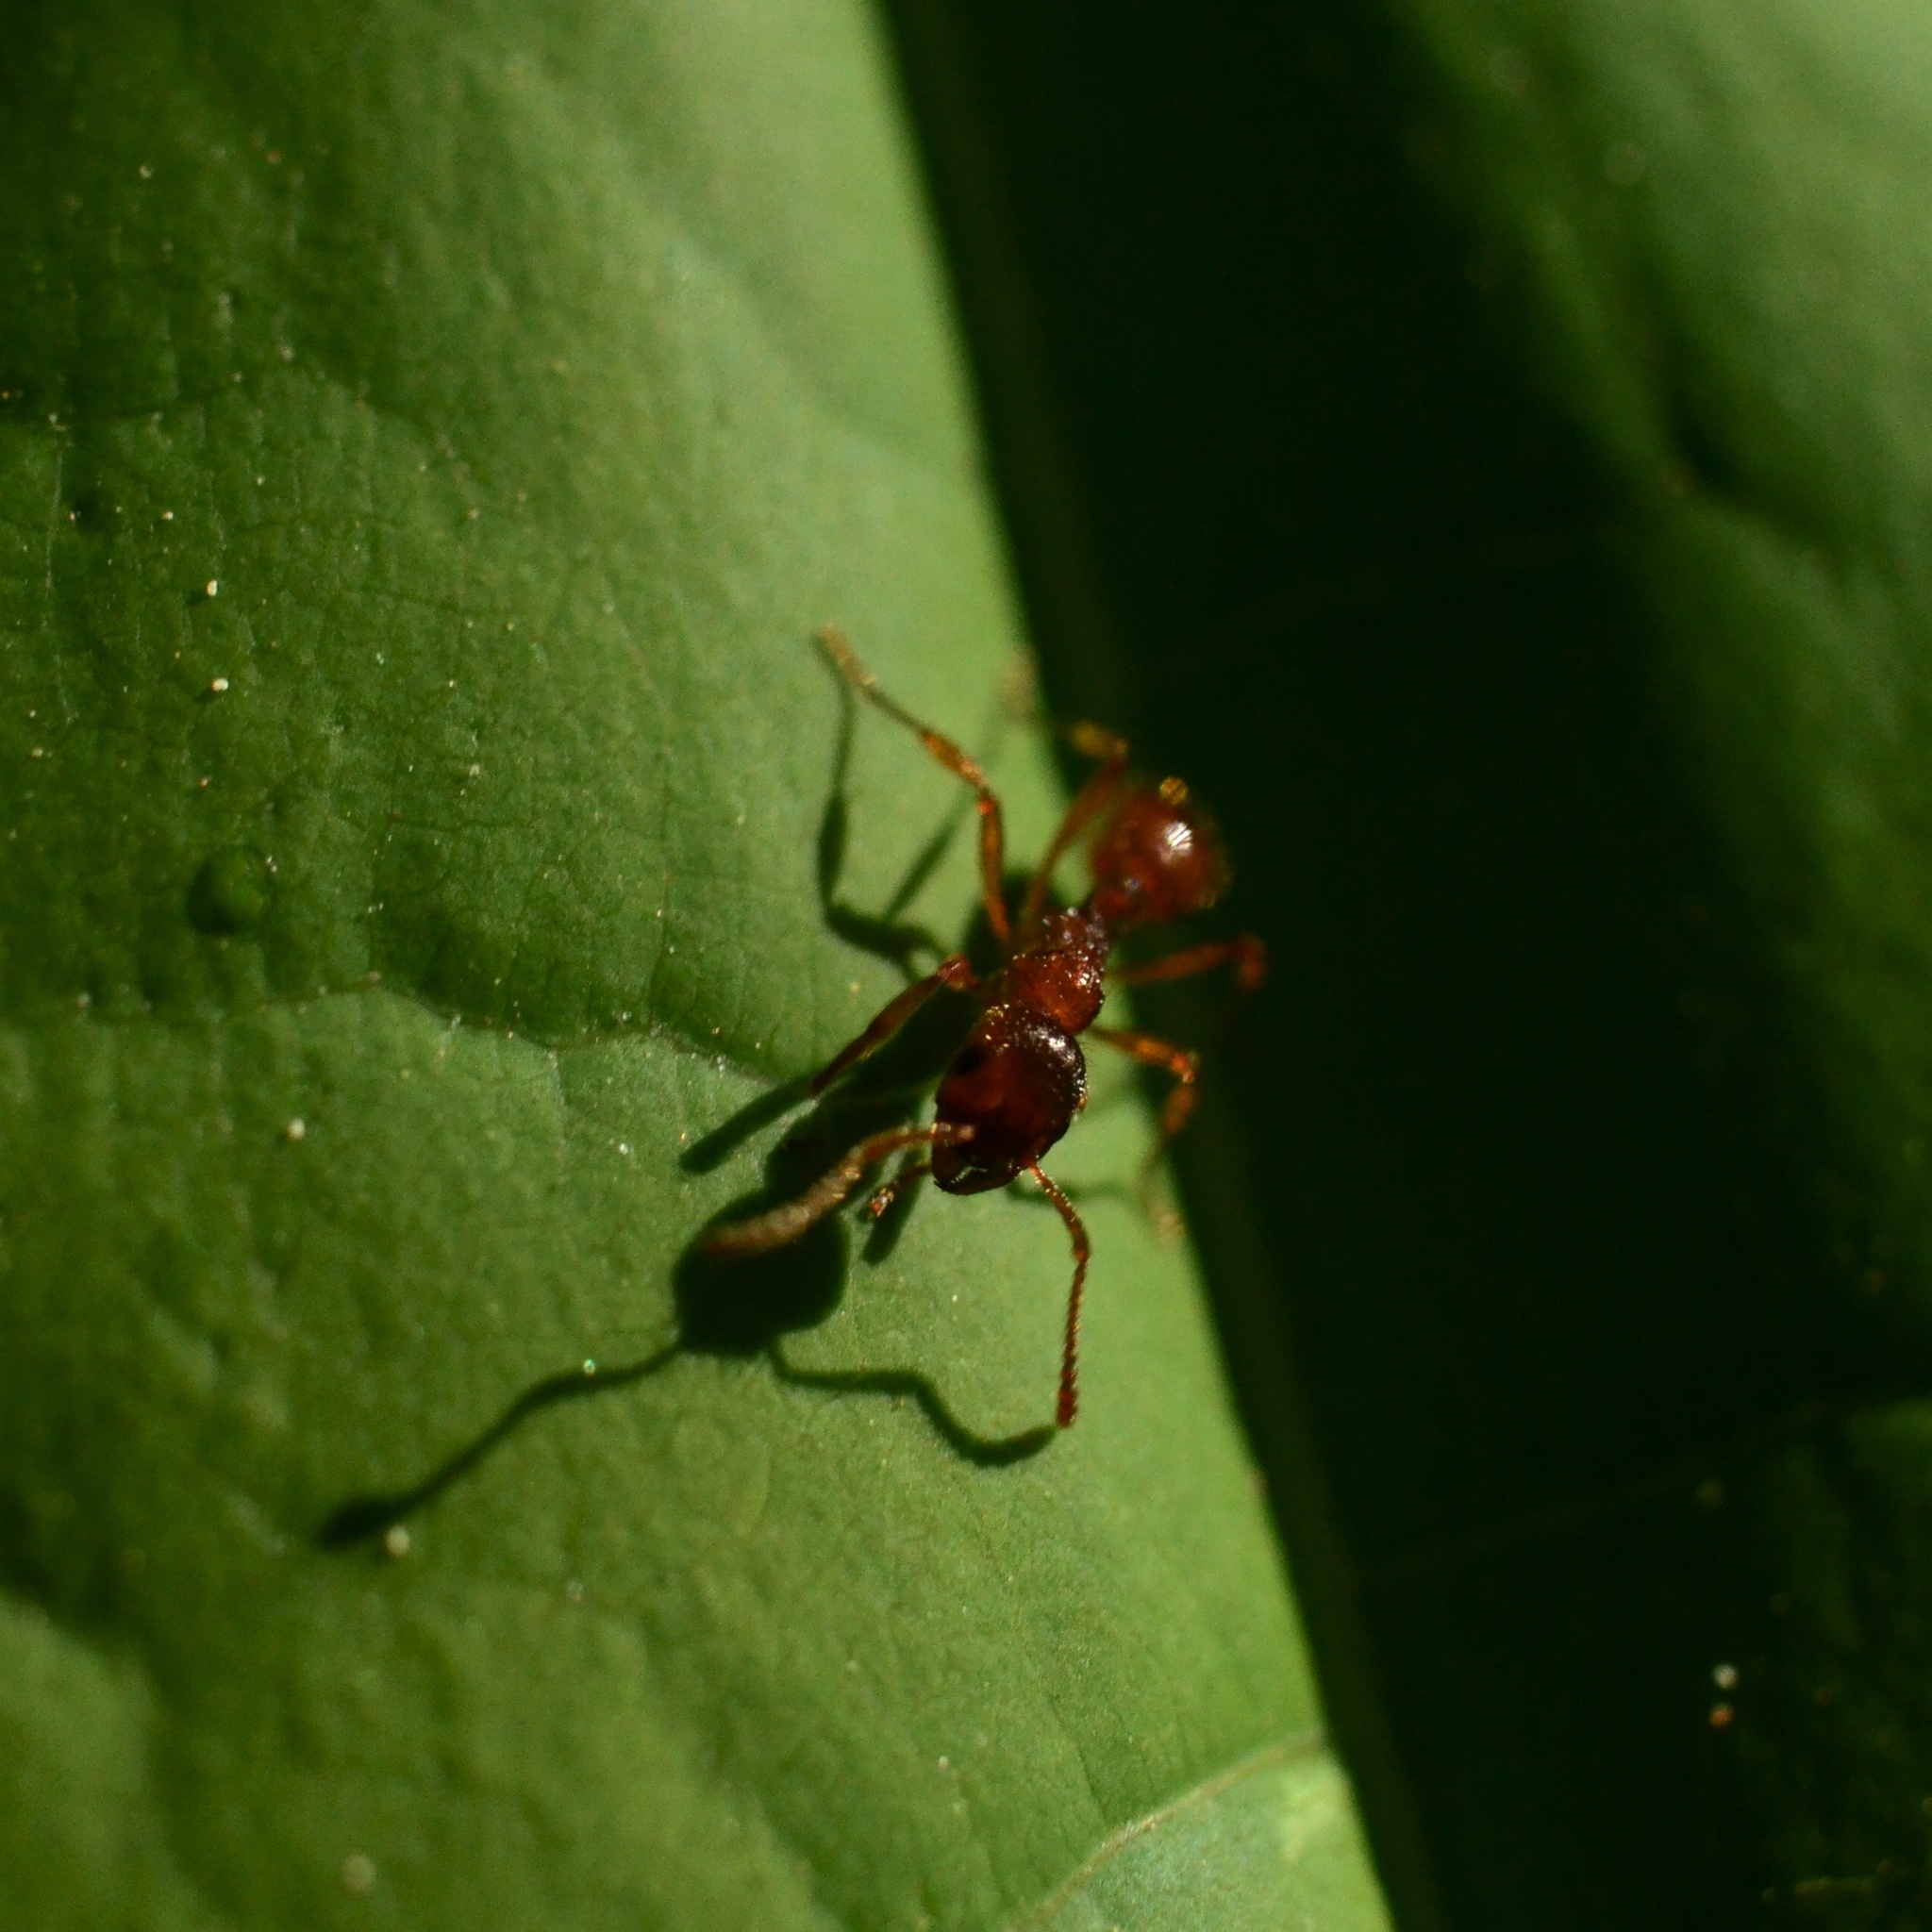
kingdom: Animalia
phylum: Arthropoda
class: Insecta
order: Hymenoptera
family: Formicidae
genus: Myrmica
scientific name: Myrmica
